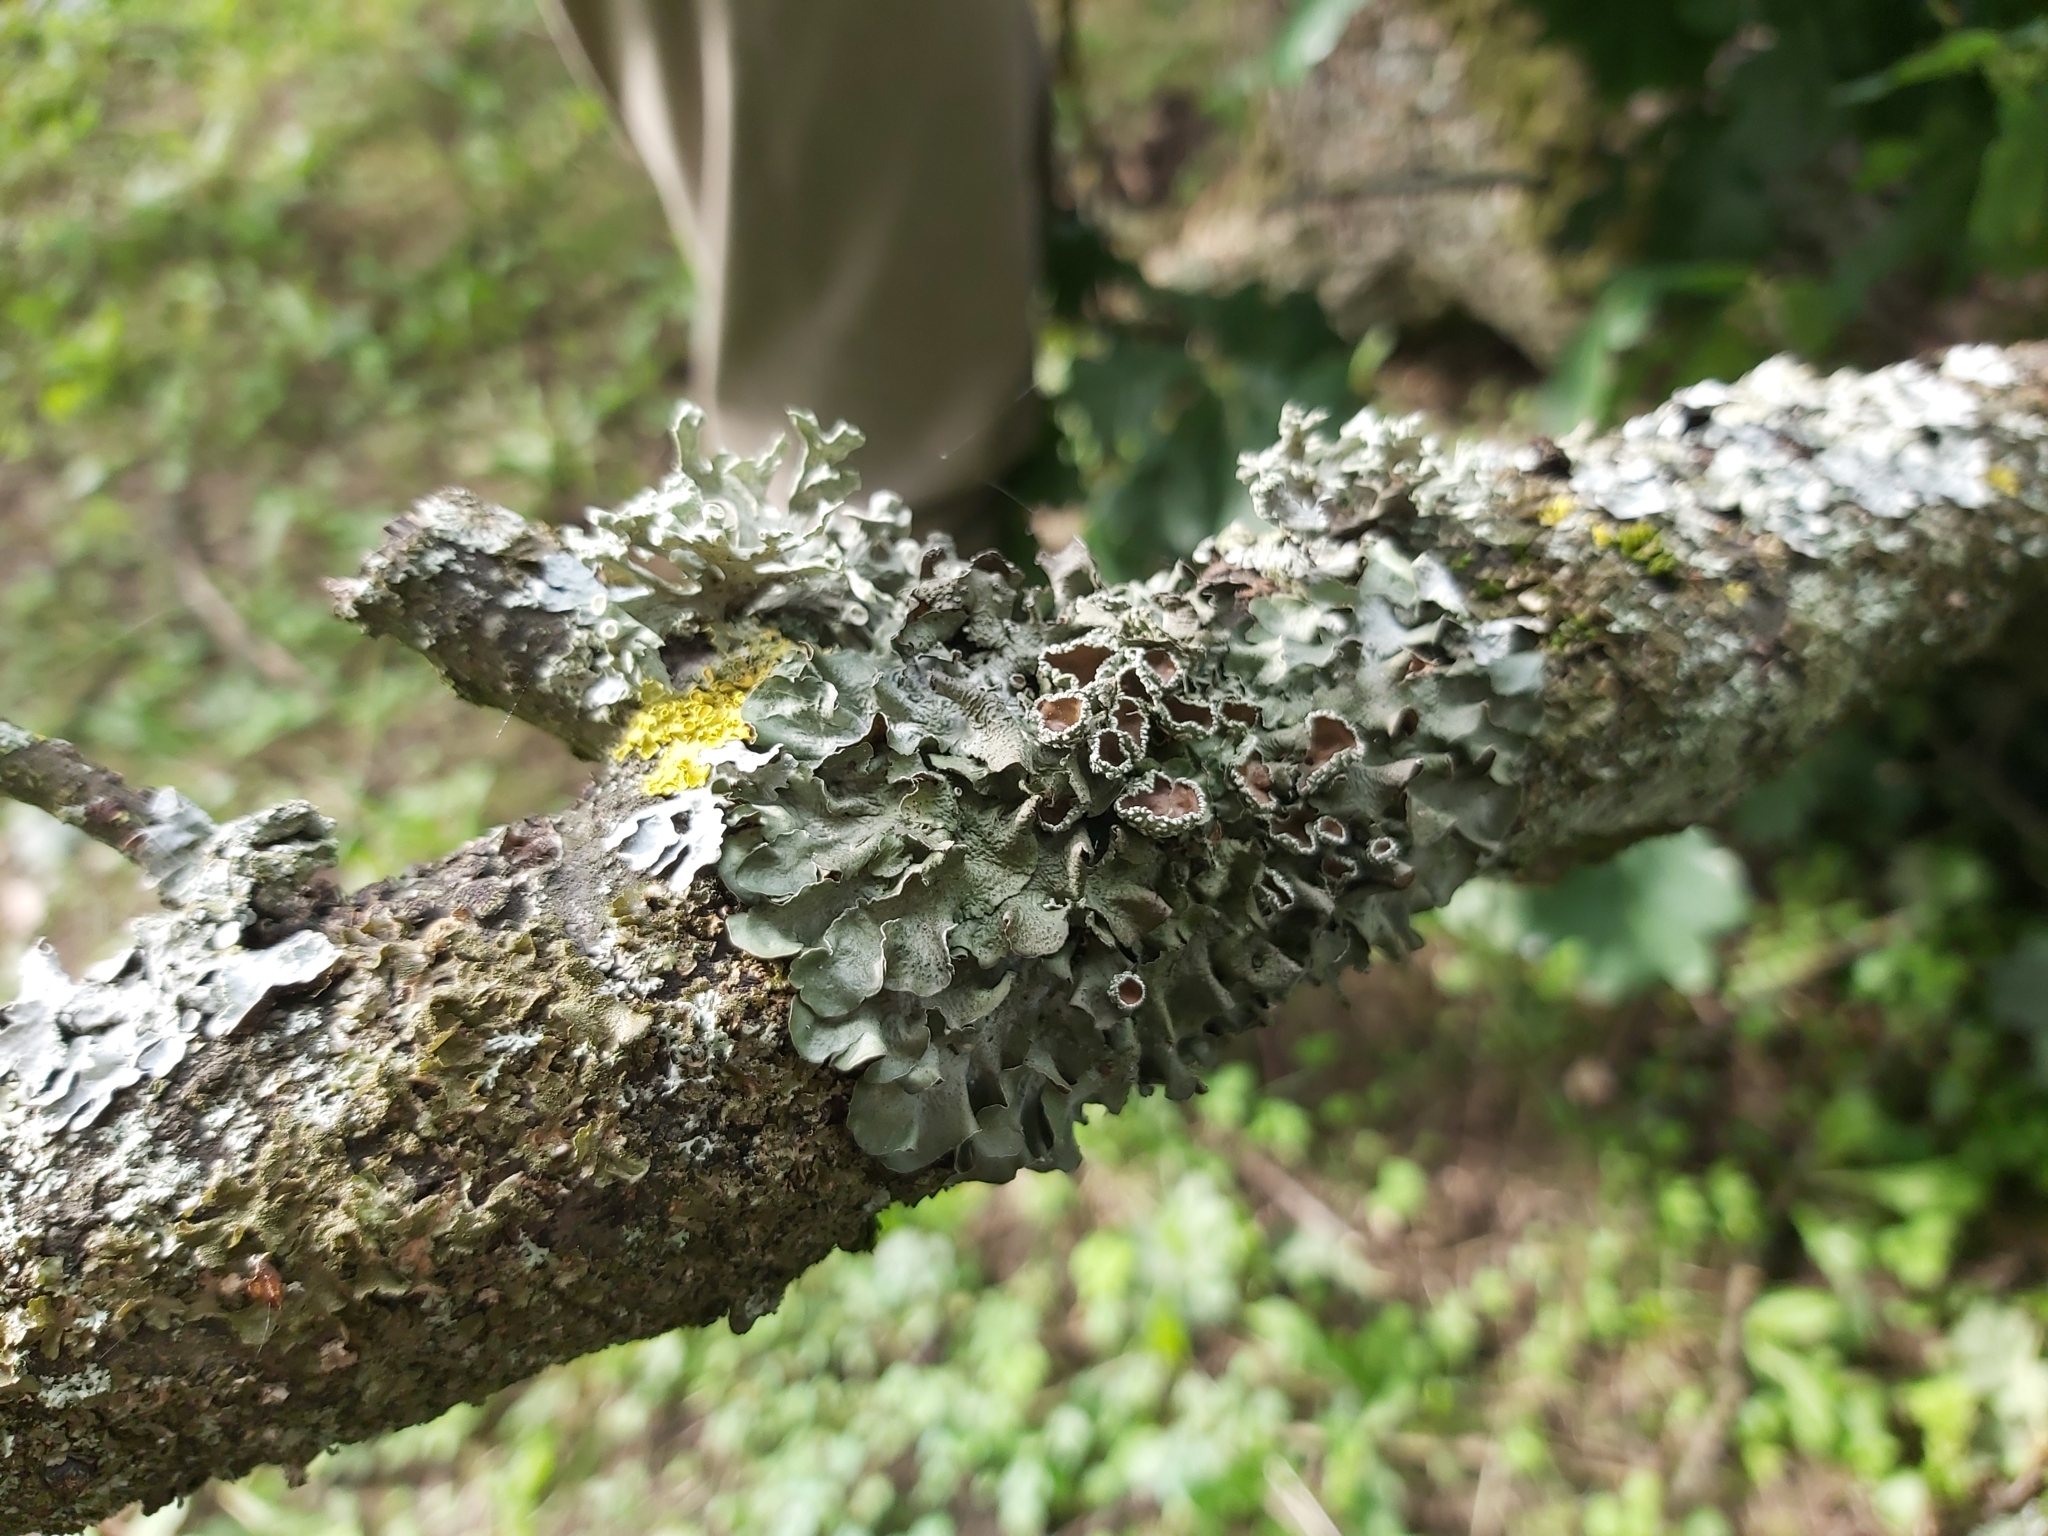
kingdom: Fungi
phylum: Ascomycota
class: Lecanoromycetes
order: Lecanorales
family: Parmeliaceae
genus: Pleurosticta
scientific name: Pleurosticta acetabulum
